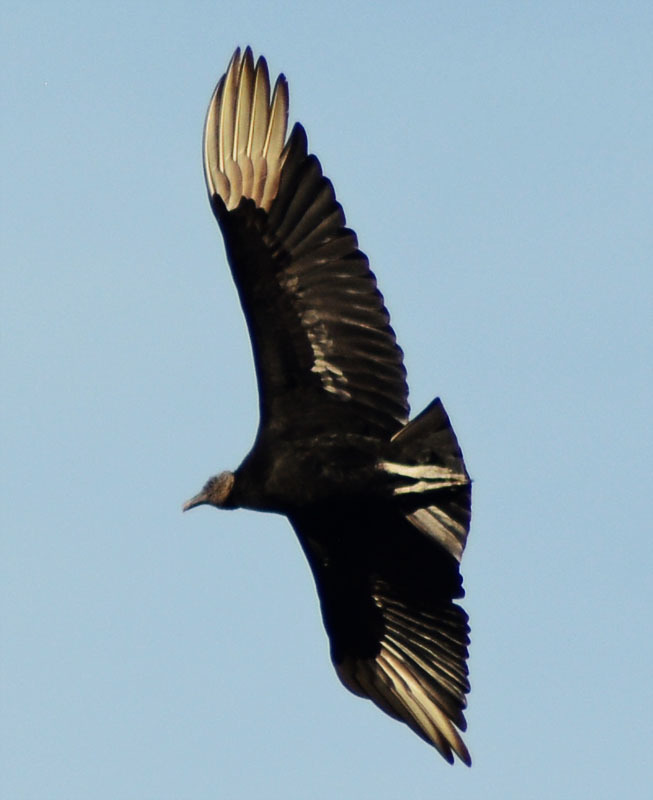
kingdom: Animalia
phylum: Chordata
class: Aves
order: Accipitriformes
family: Cathartidae
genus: Coragyps
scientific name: Coragyps atratus
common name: Black vulture
